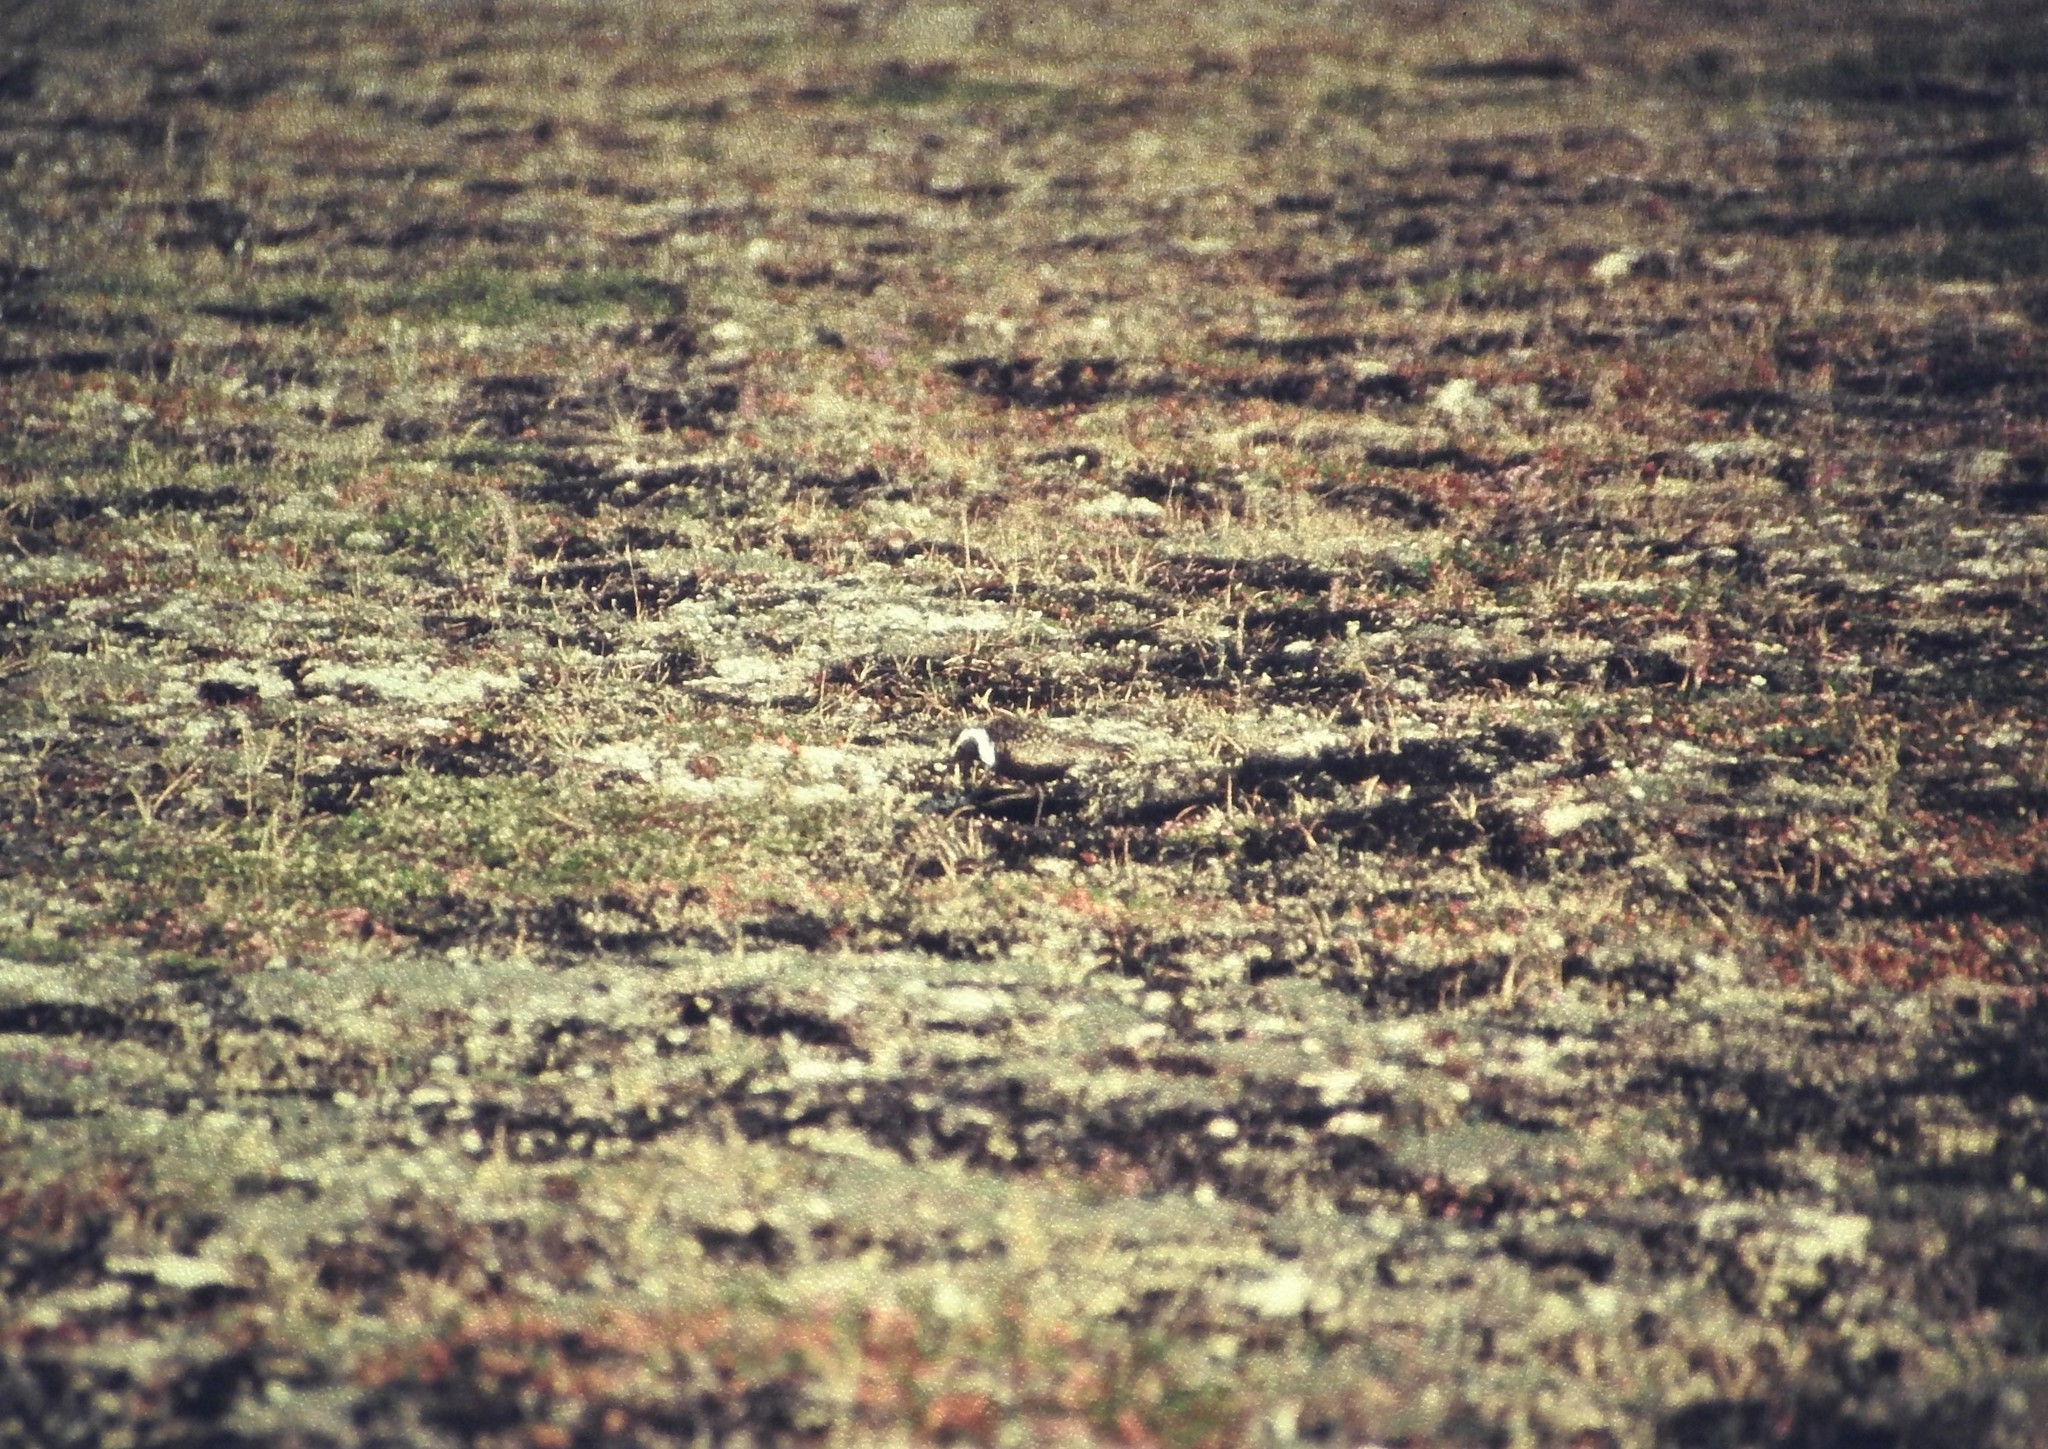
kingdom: Animalia
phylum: Chordata
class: Aves
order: Charadriiformes
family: Charadriidae
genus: Pluvialis
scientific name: Pluvialis dominica
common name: American golden plover
